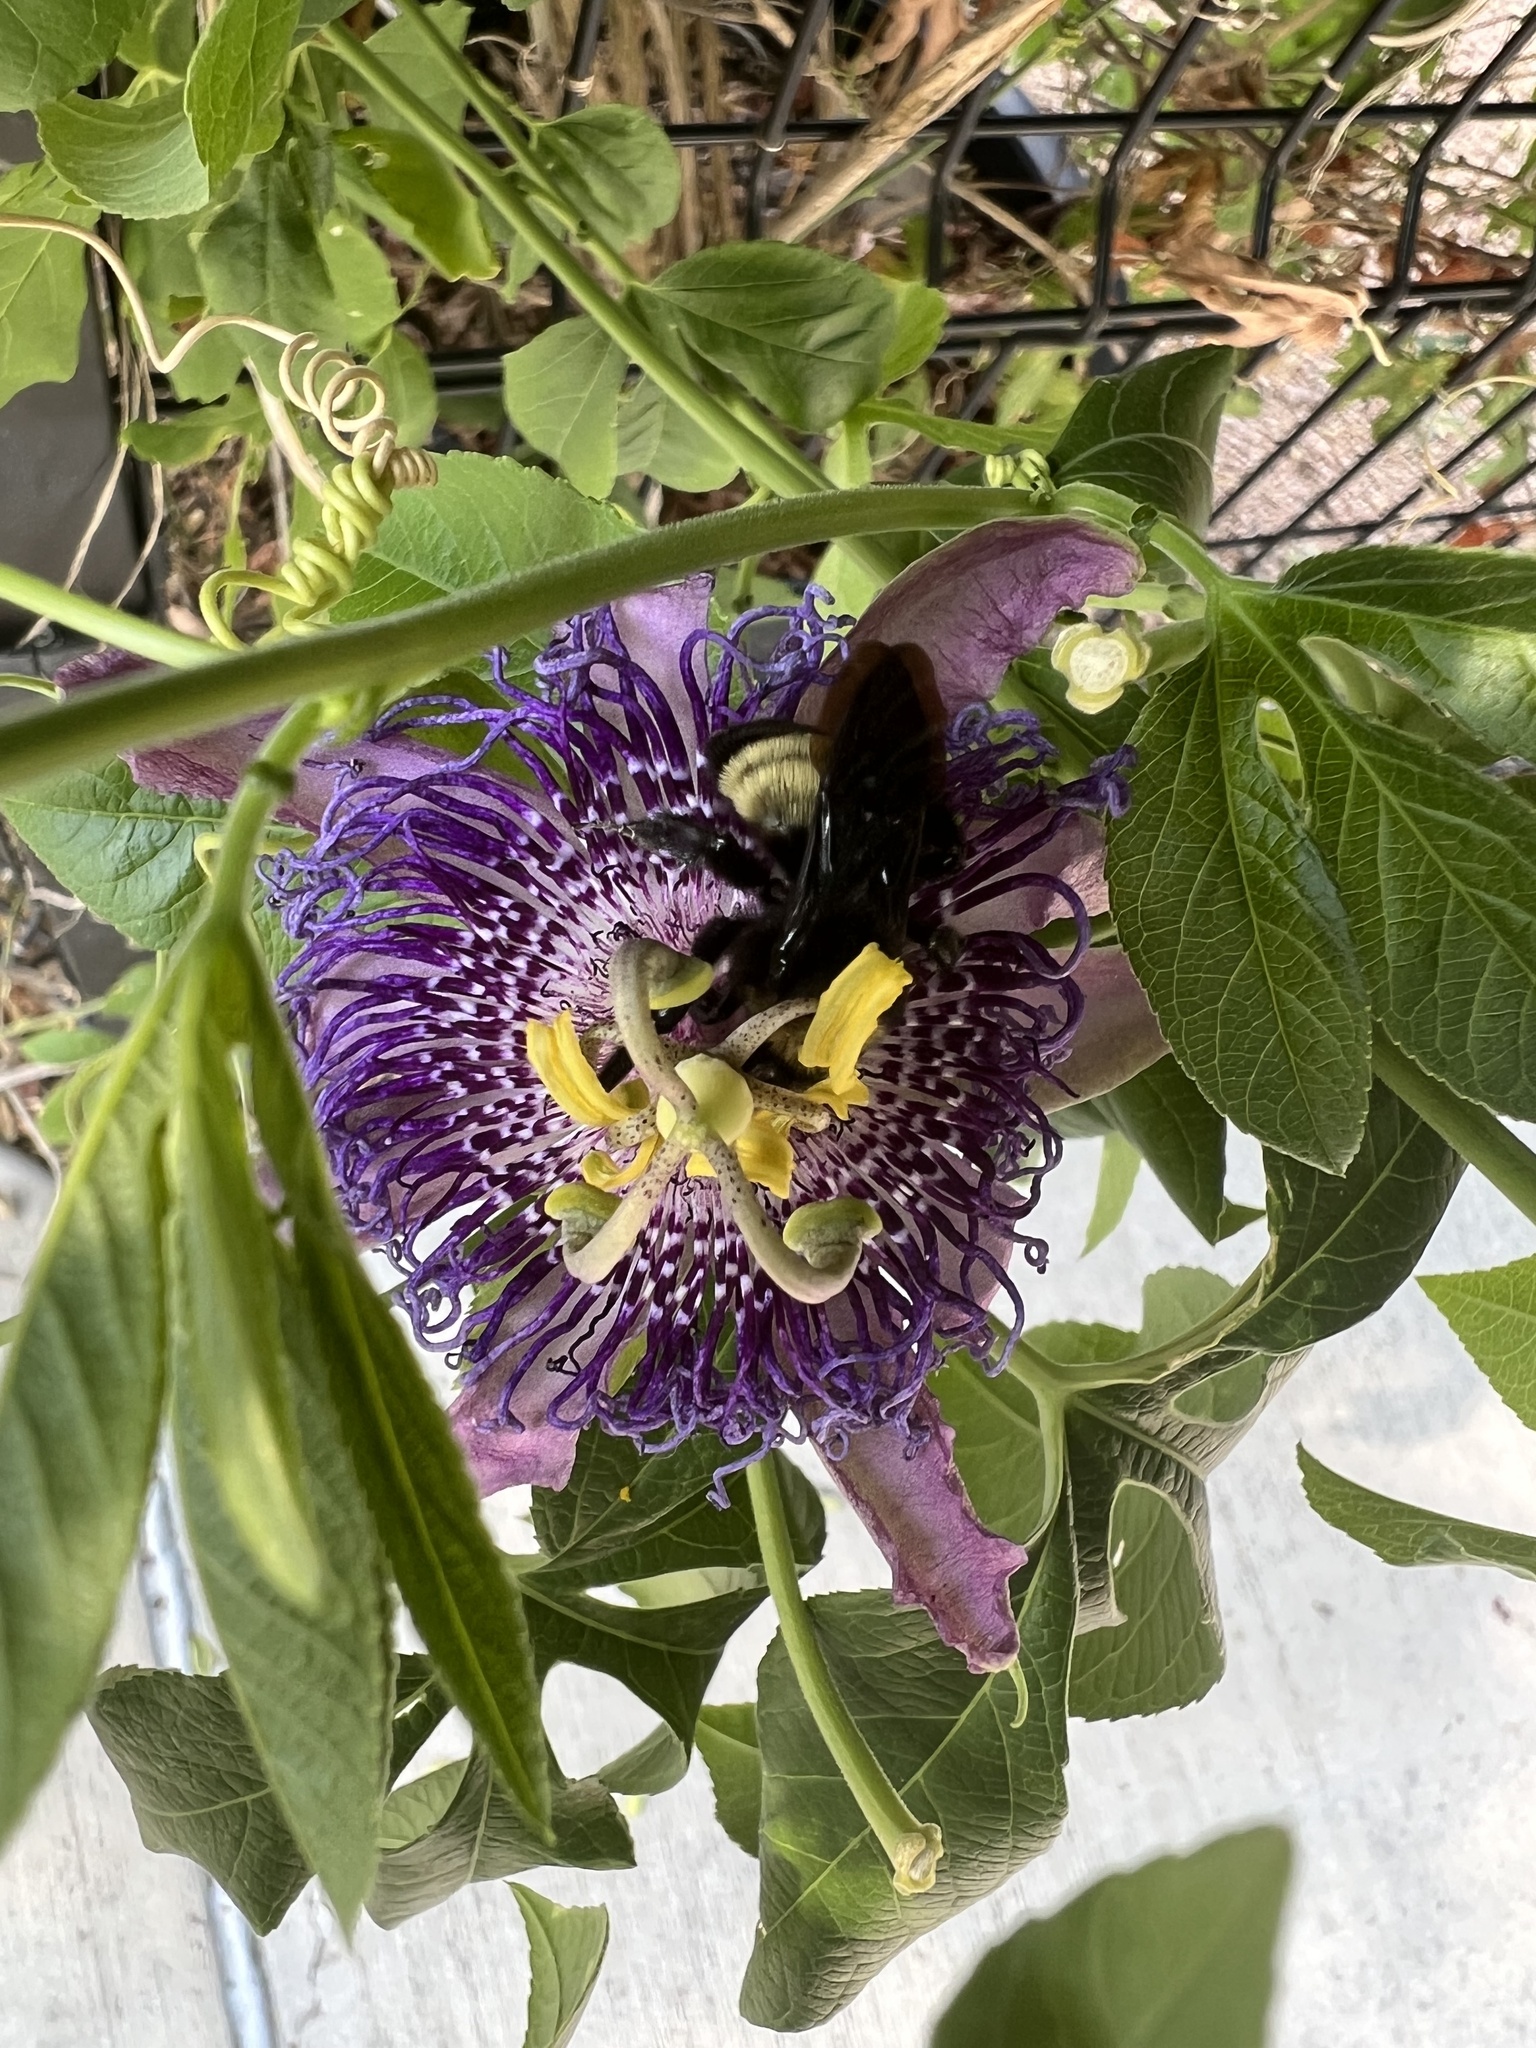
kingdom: Animalia
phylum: Arthropoda
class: Insecta
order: Hymenoptera
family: Apidae
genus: Bombus
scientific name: Bombus pensylvanicus
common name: Bumble bee
